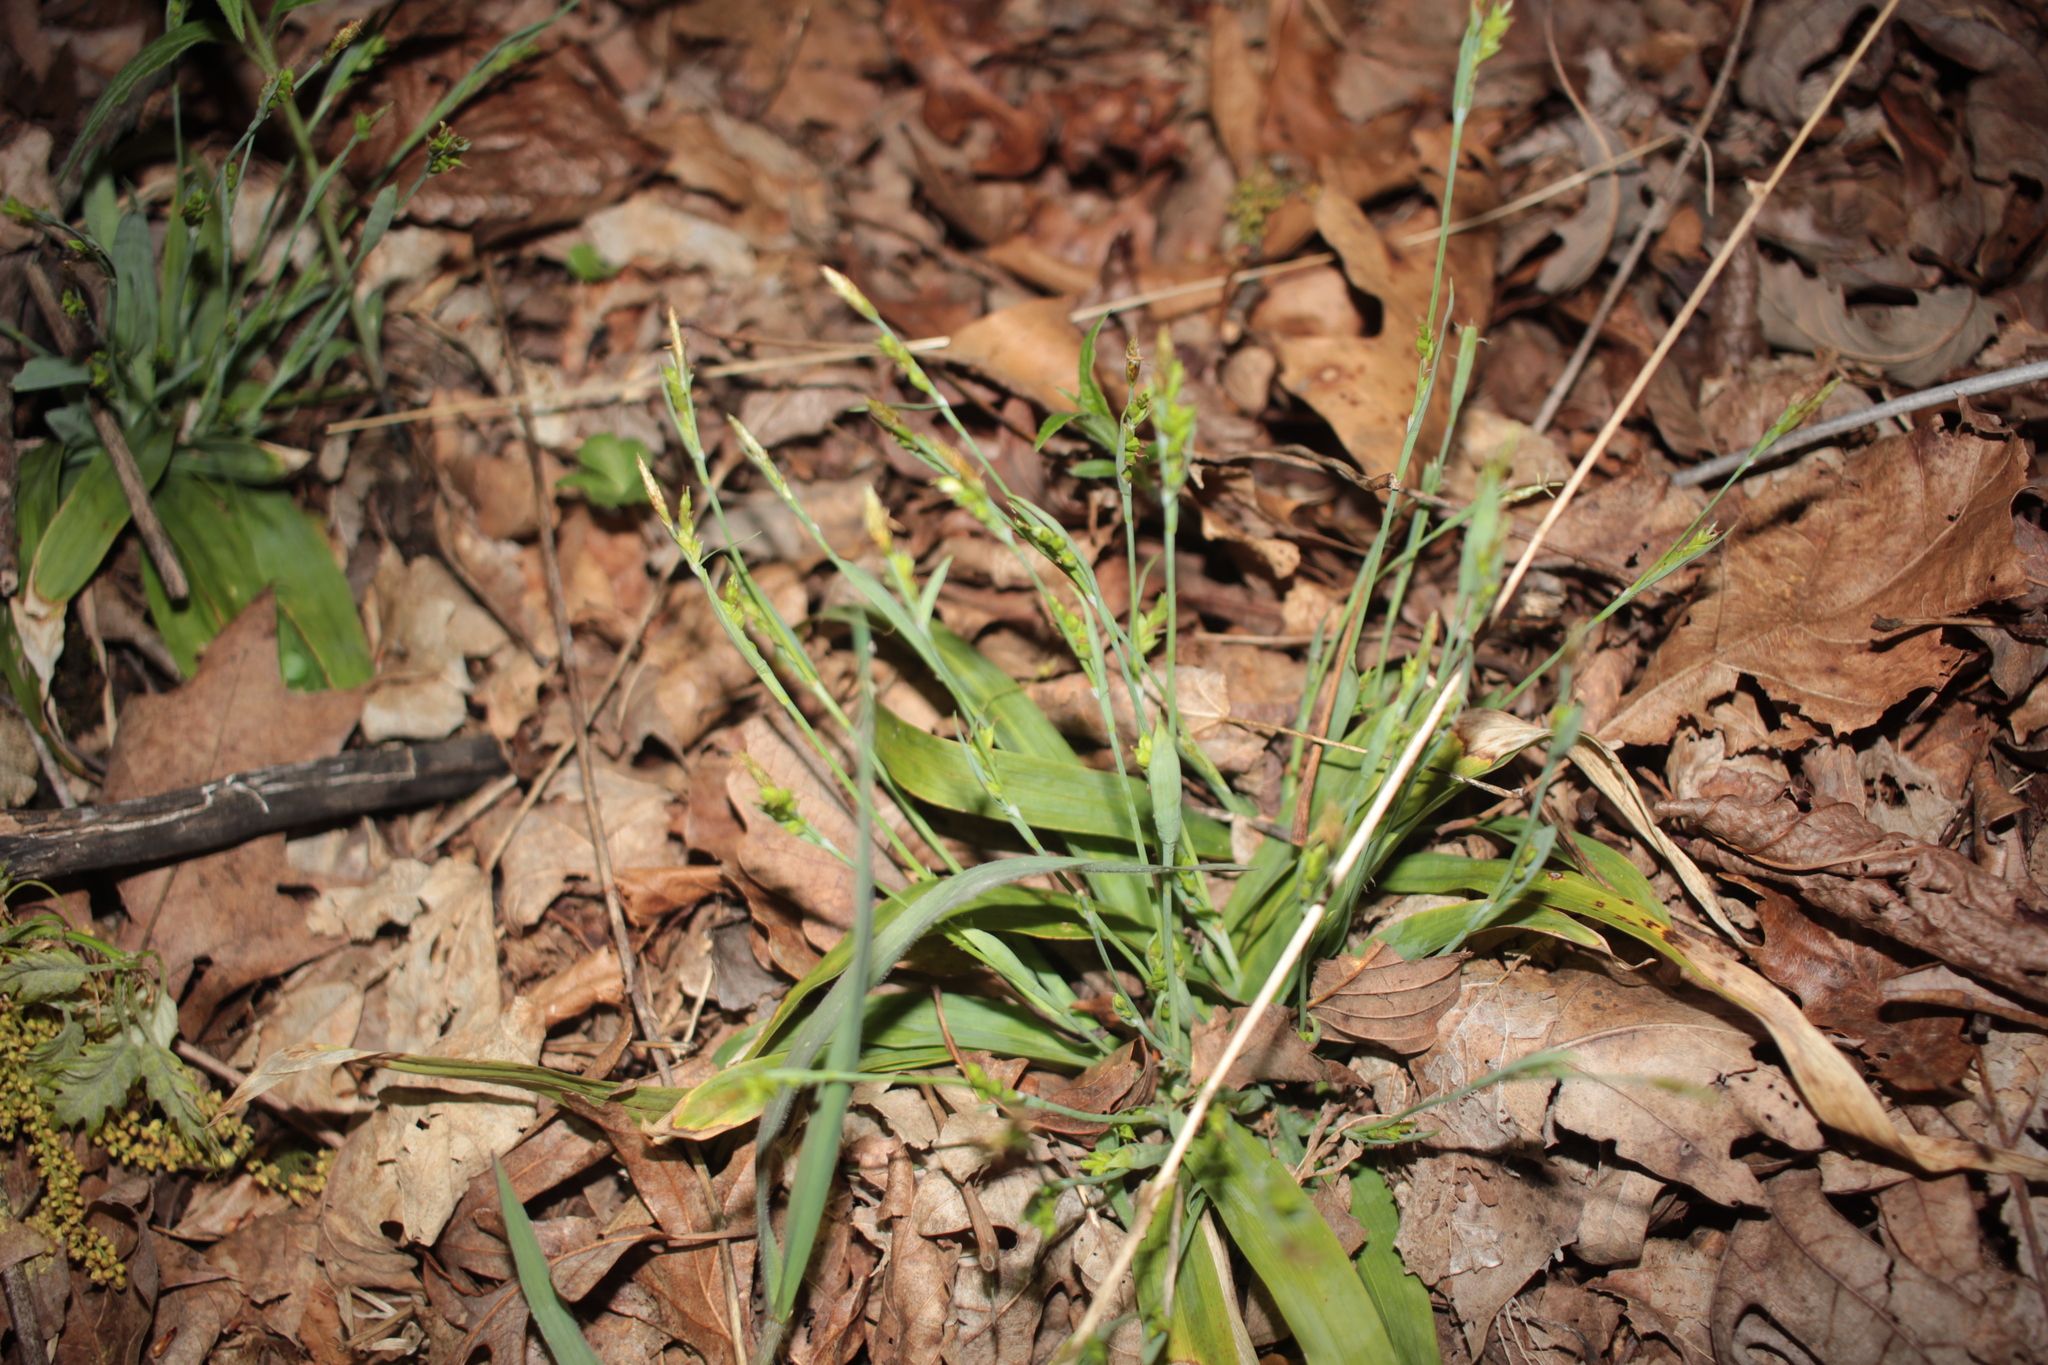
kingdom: Plantae
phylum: Tracheophyta
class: Liliopsida
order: Poales
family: Cyperaceae
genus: Carex
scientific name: Carex platyphylla
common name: Broad-leaved sedge
